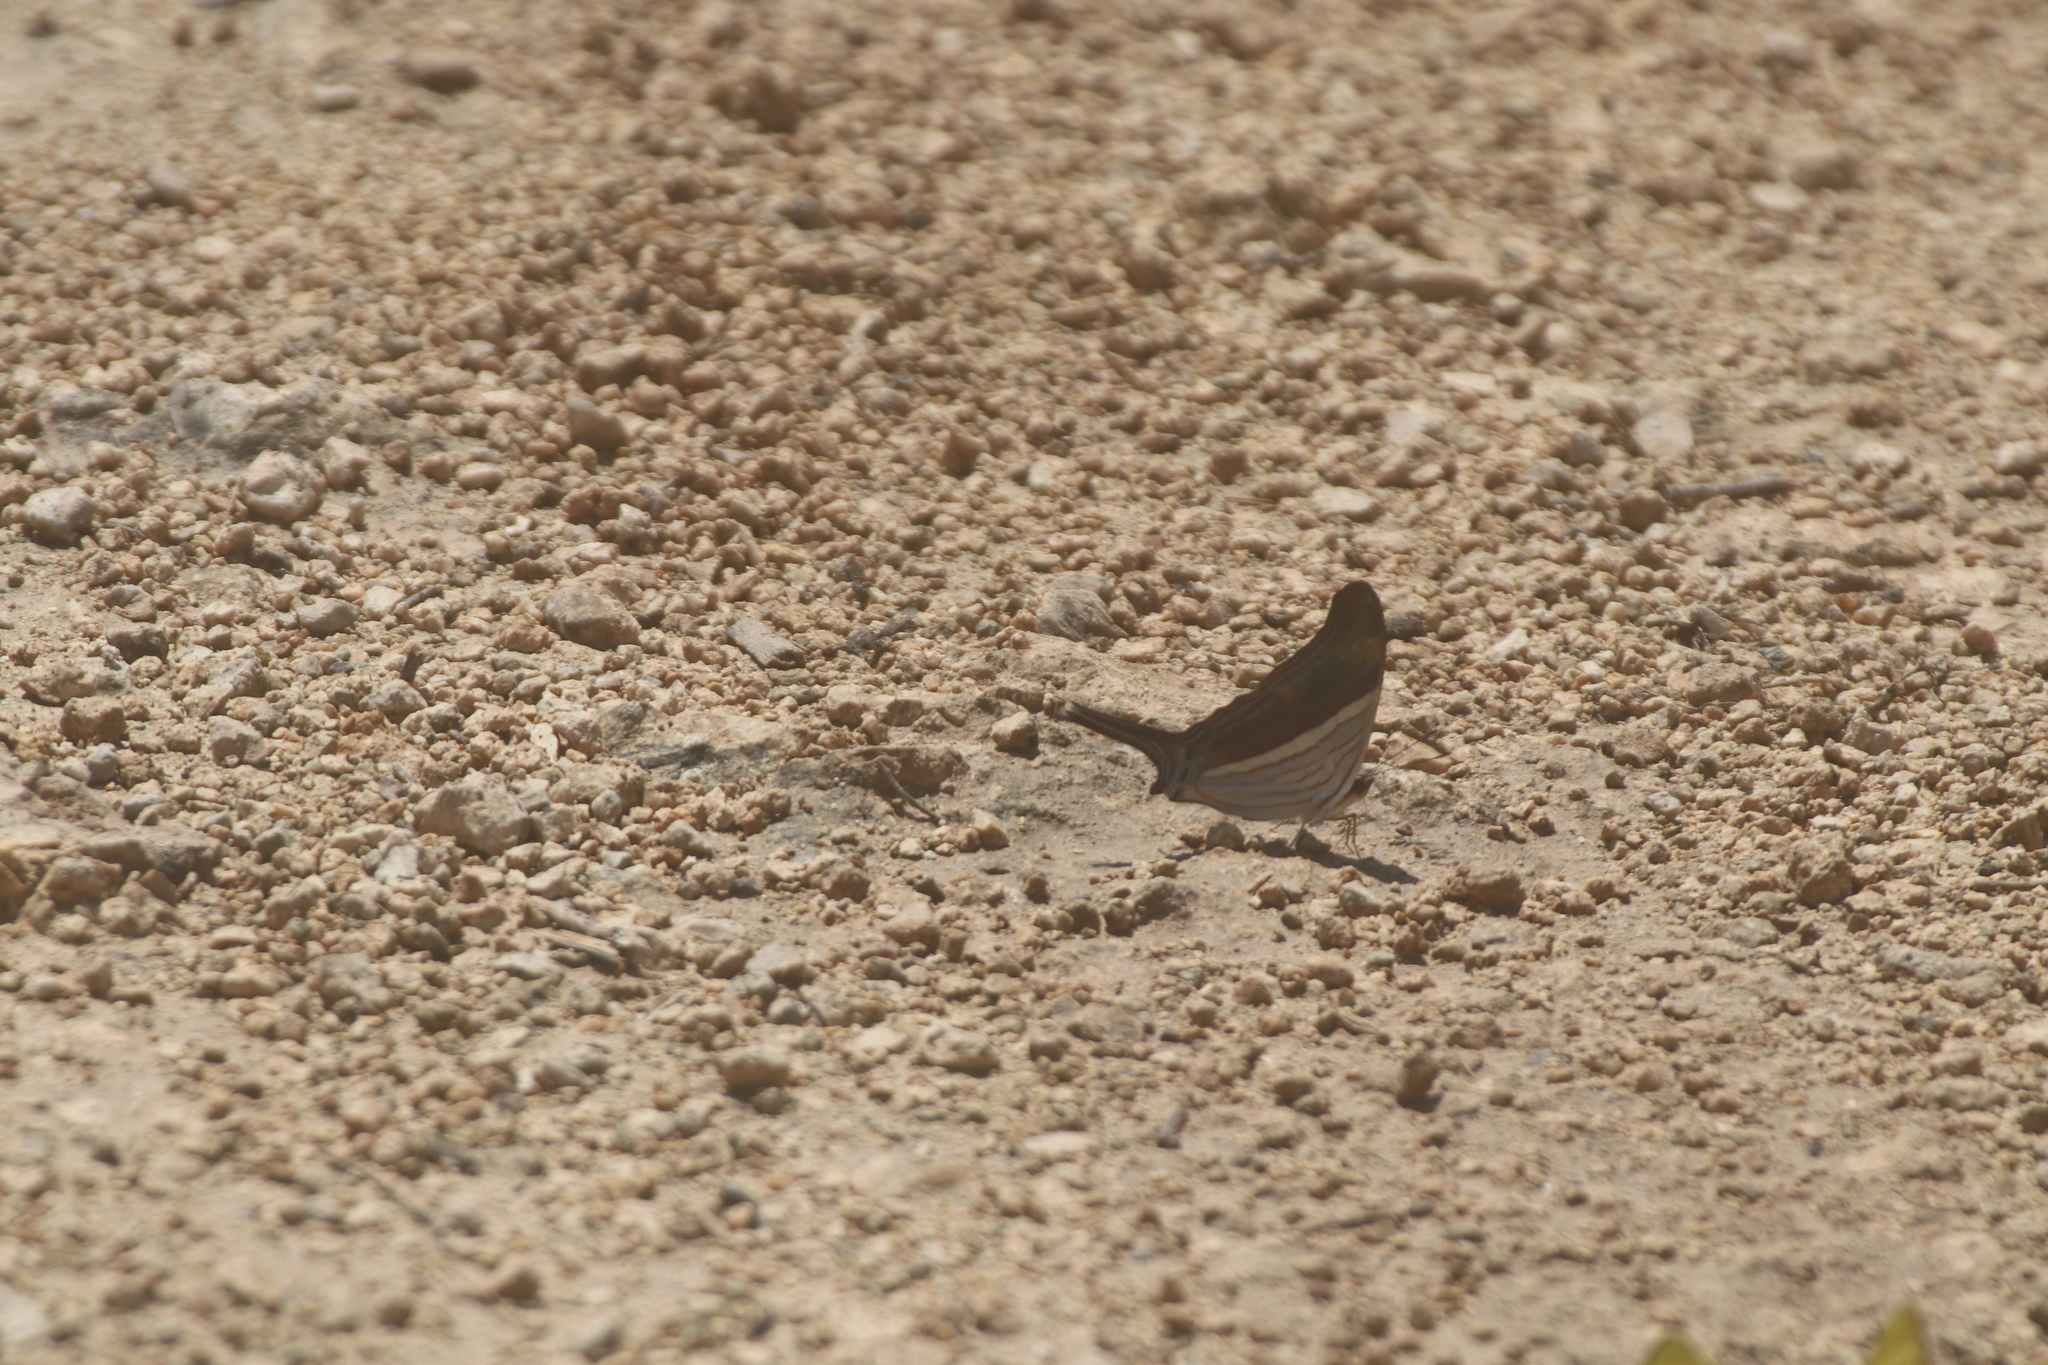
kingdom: Animalia
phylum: Arthropoda
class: Insecta
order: Lepidoptera
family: Nymphalidae
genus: Marpesia
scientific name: Marpesia chiron
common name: Many-banded daggerwing
